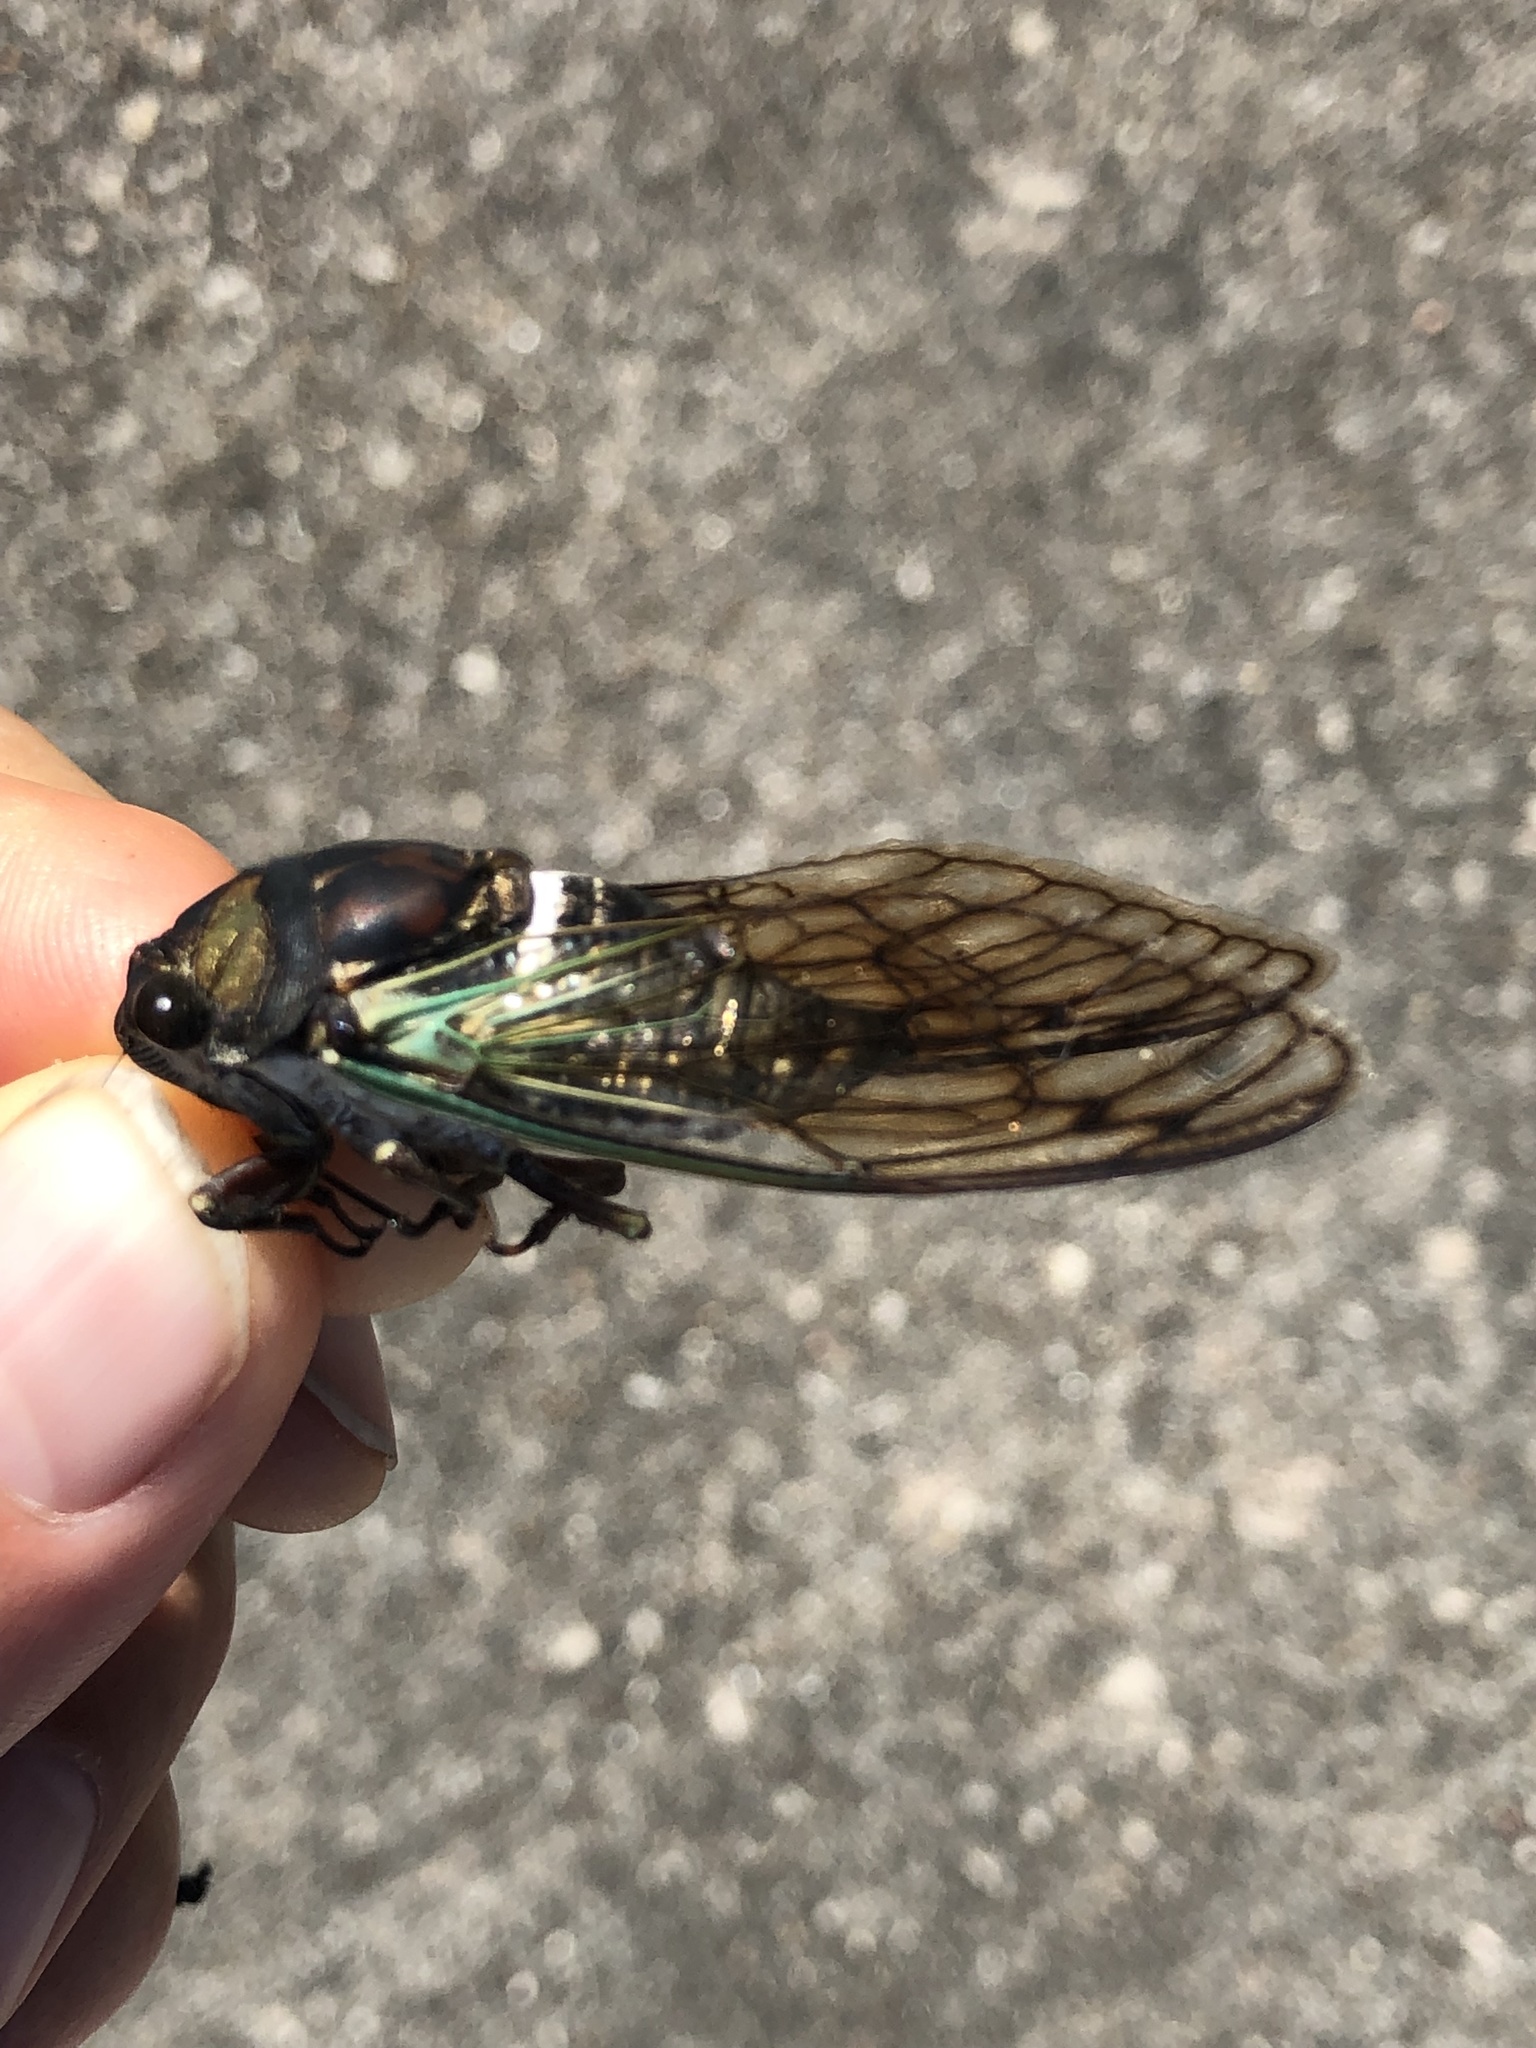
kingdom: Animalia
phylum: Arthropoda
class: Insecta
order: Hemiptera
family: Cicadidae
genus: Neotibicen
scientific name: Neotibicen lyricen
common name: Lyric cicada
